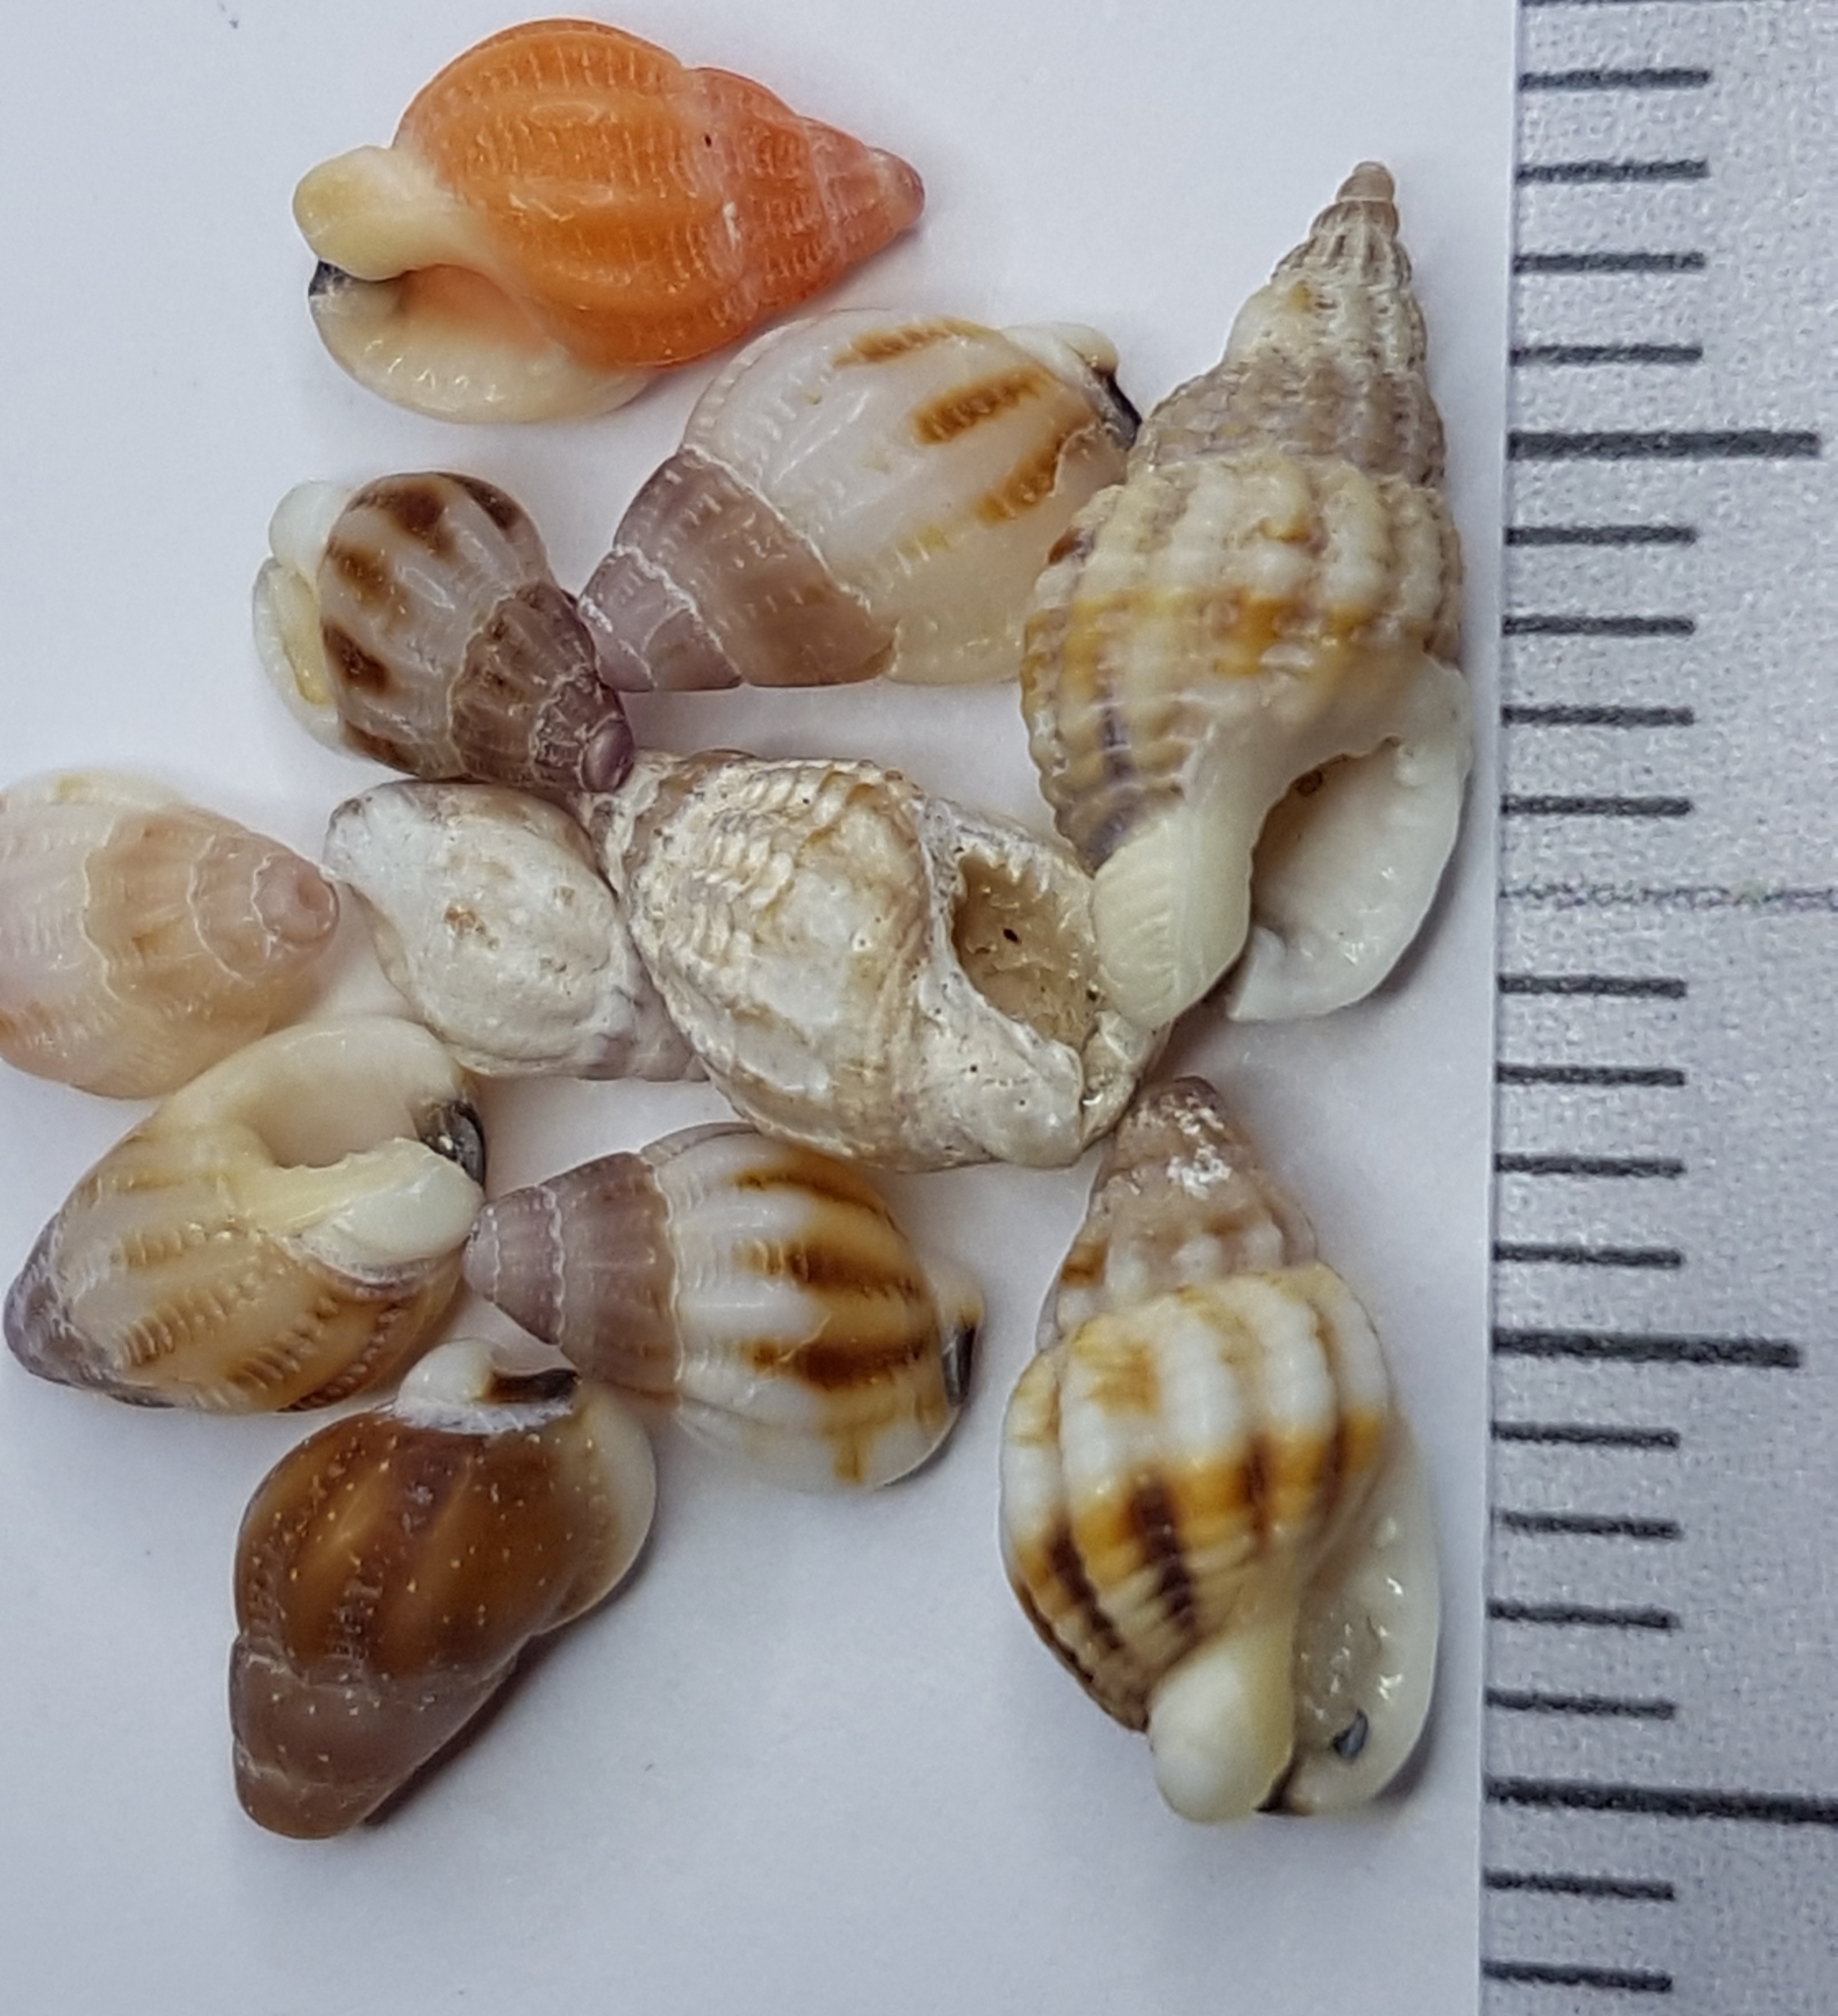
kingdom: Animalia
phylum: Mollusca
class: Gastropoda
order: Neogastropoda
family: Nassariidae
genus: Tritia
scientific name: Tritia incrassata
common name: Thick-lipped dog whelk
